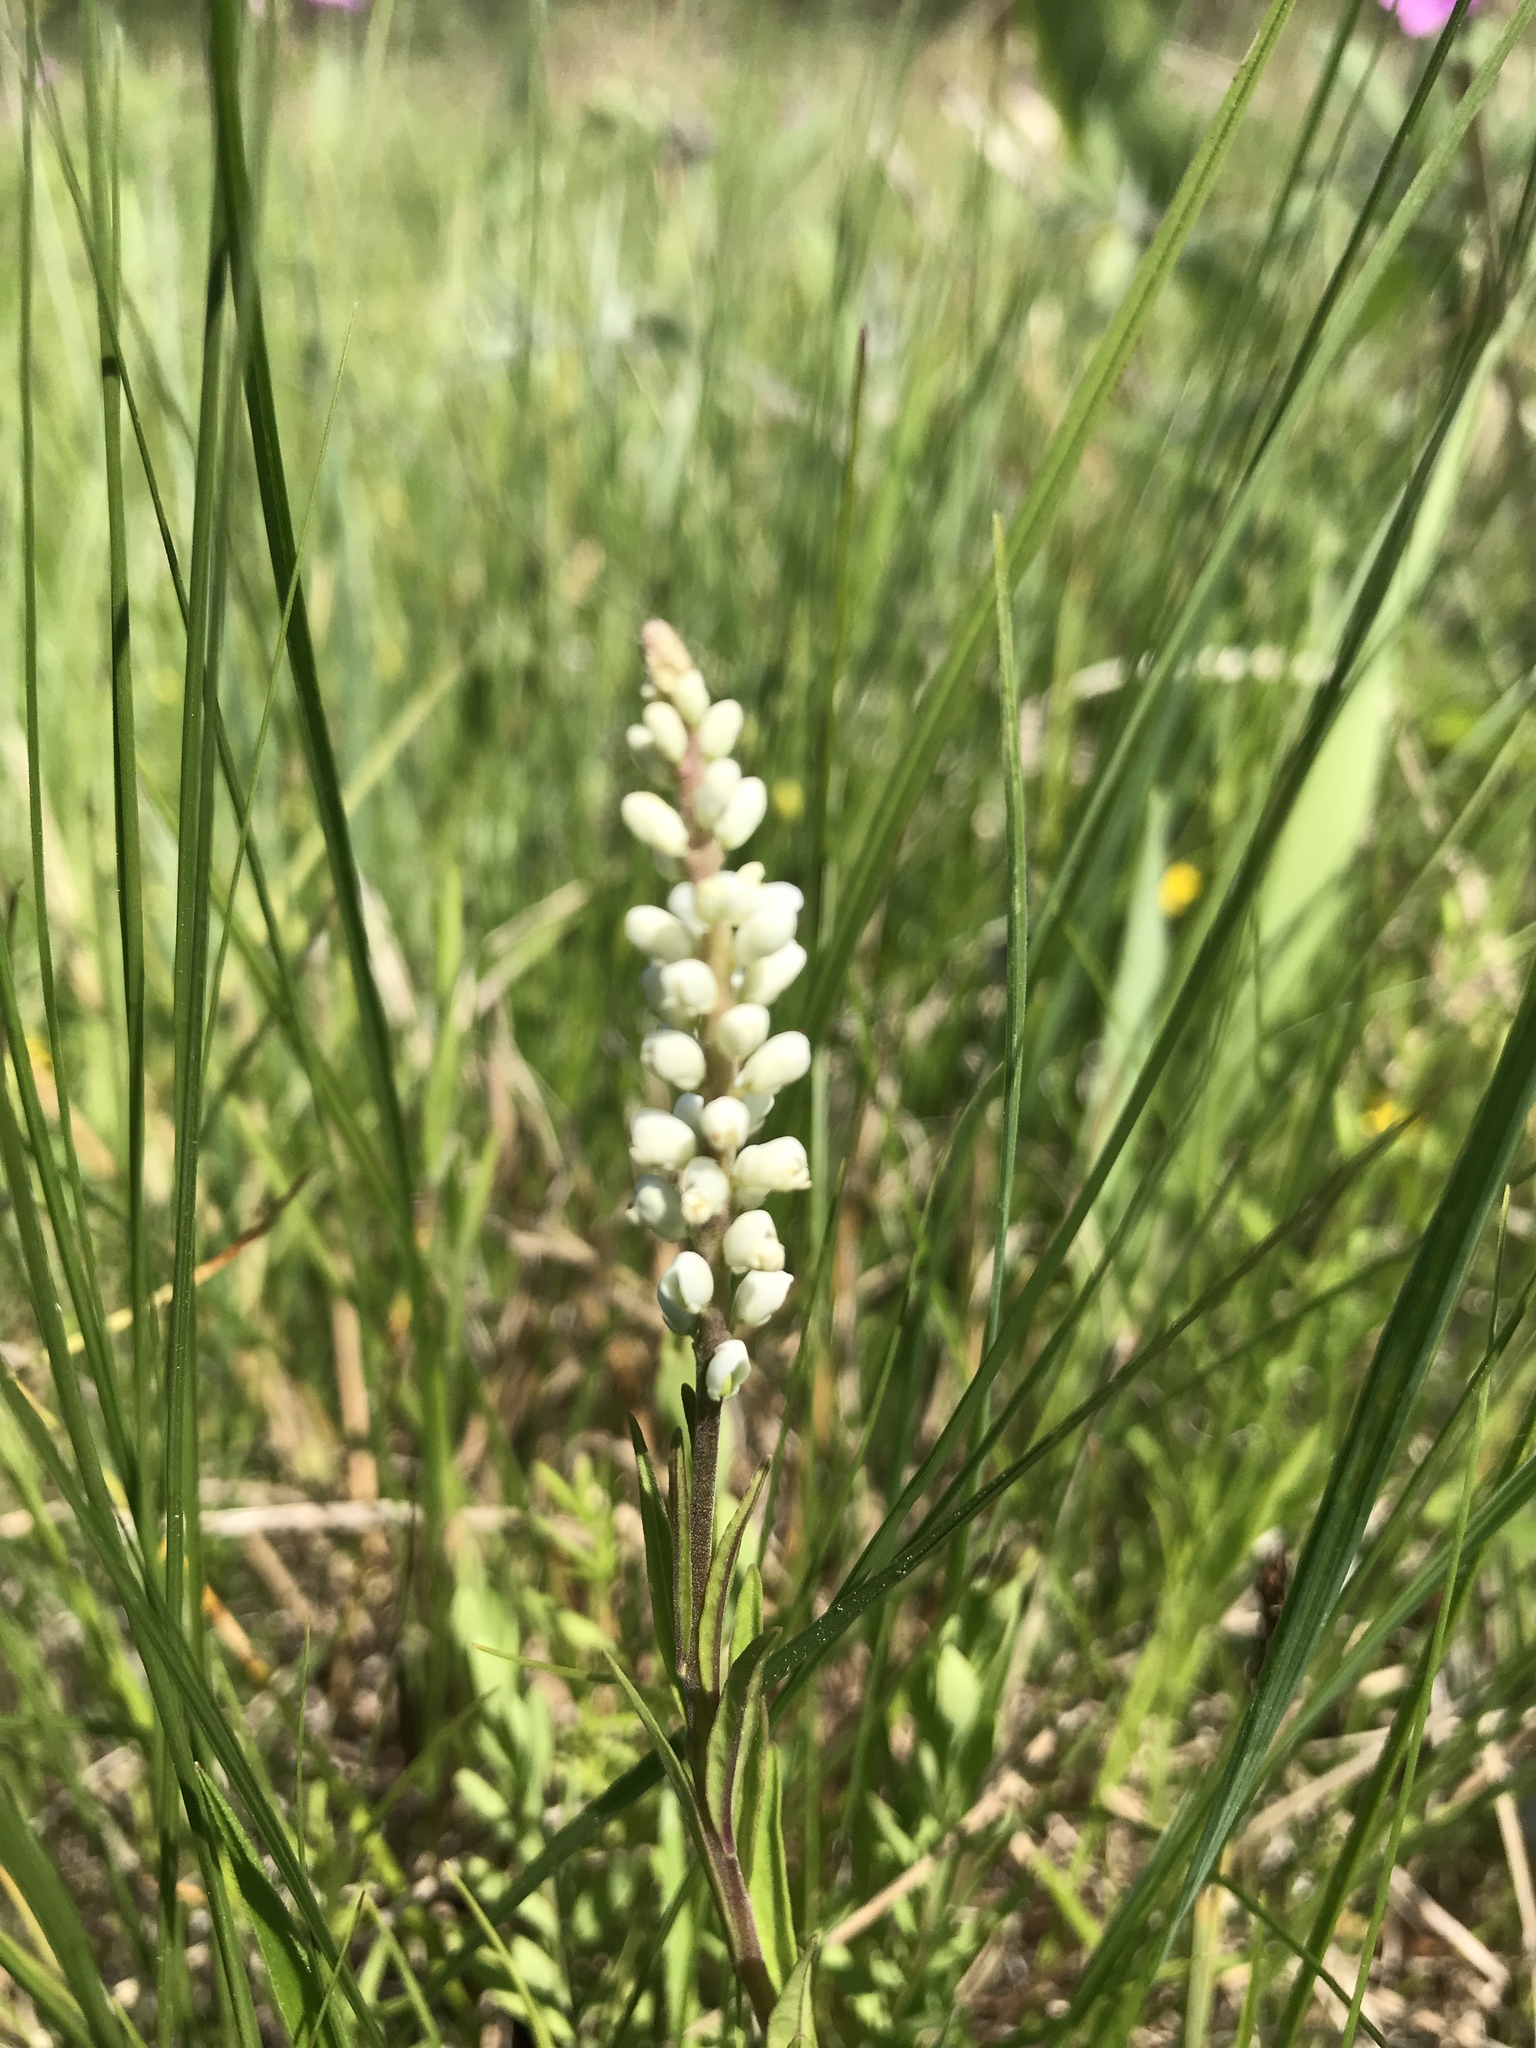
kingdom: Plantae
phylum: Tracheophyta
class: Magnoliopsida
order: Fabales
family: Polygalaceae
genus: Polygala
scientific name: Polygala senega
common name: Seneca snakeroot
